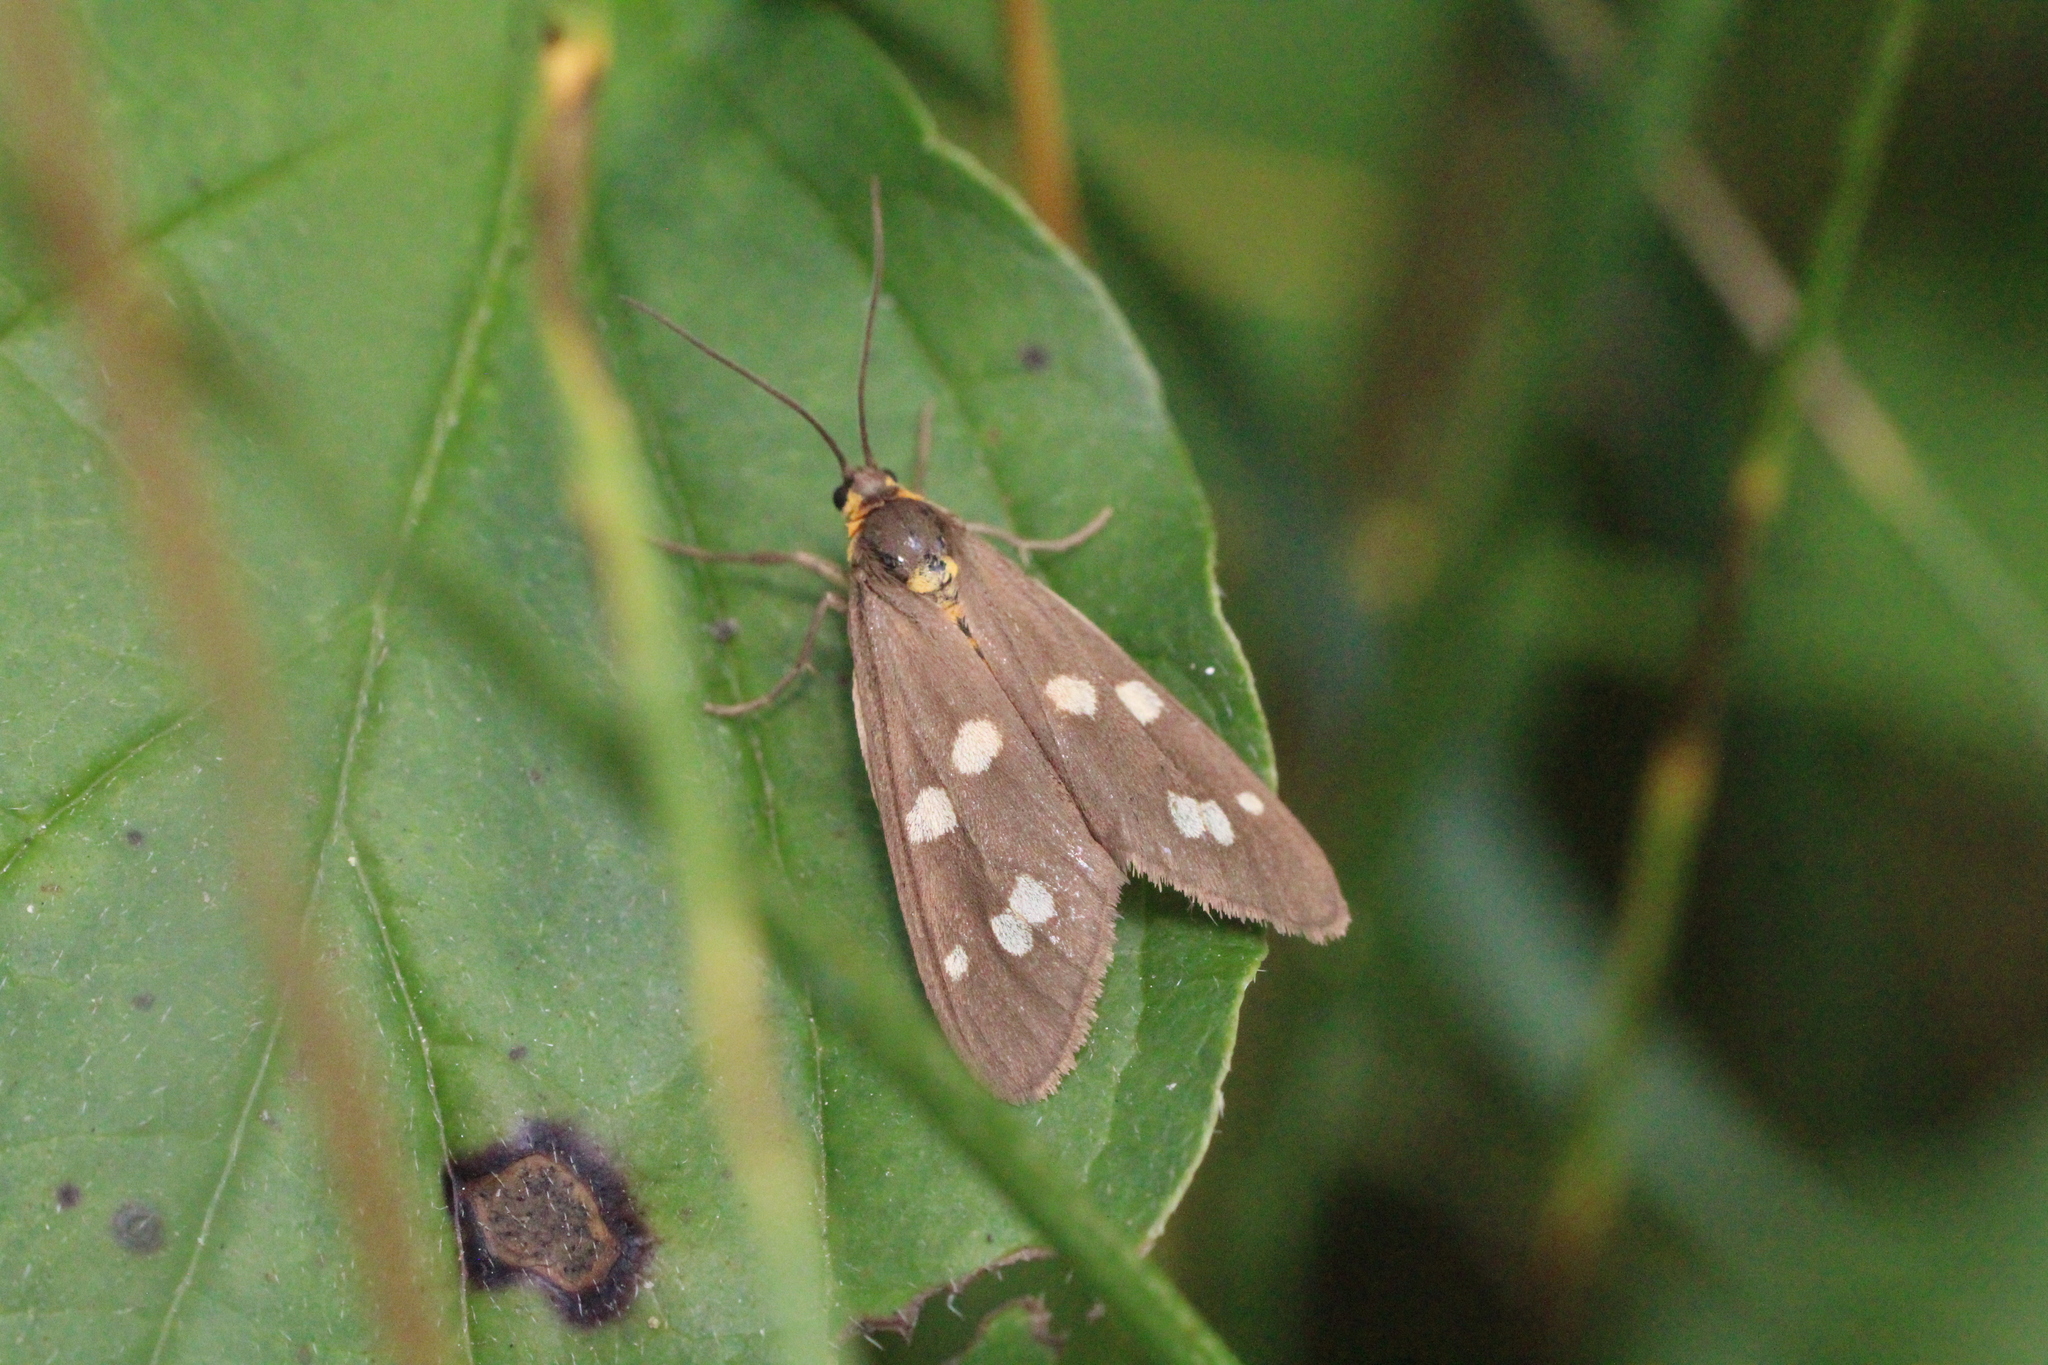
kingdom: Animalia
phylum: Arthropoda
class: Insecta
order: Lepidoptera
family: Erebidae
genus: Dysauxes
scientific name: Dysauxes punctata
